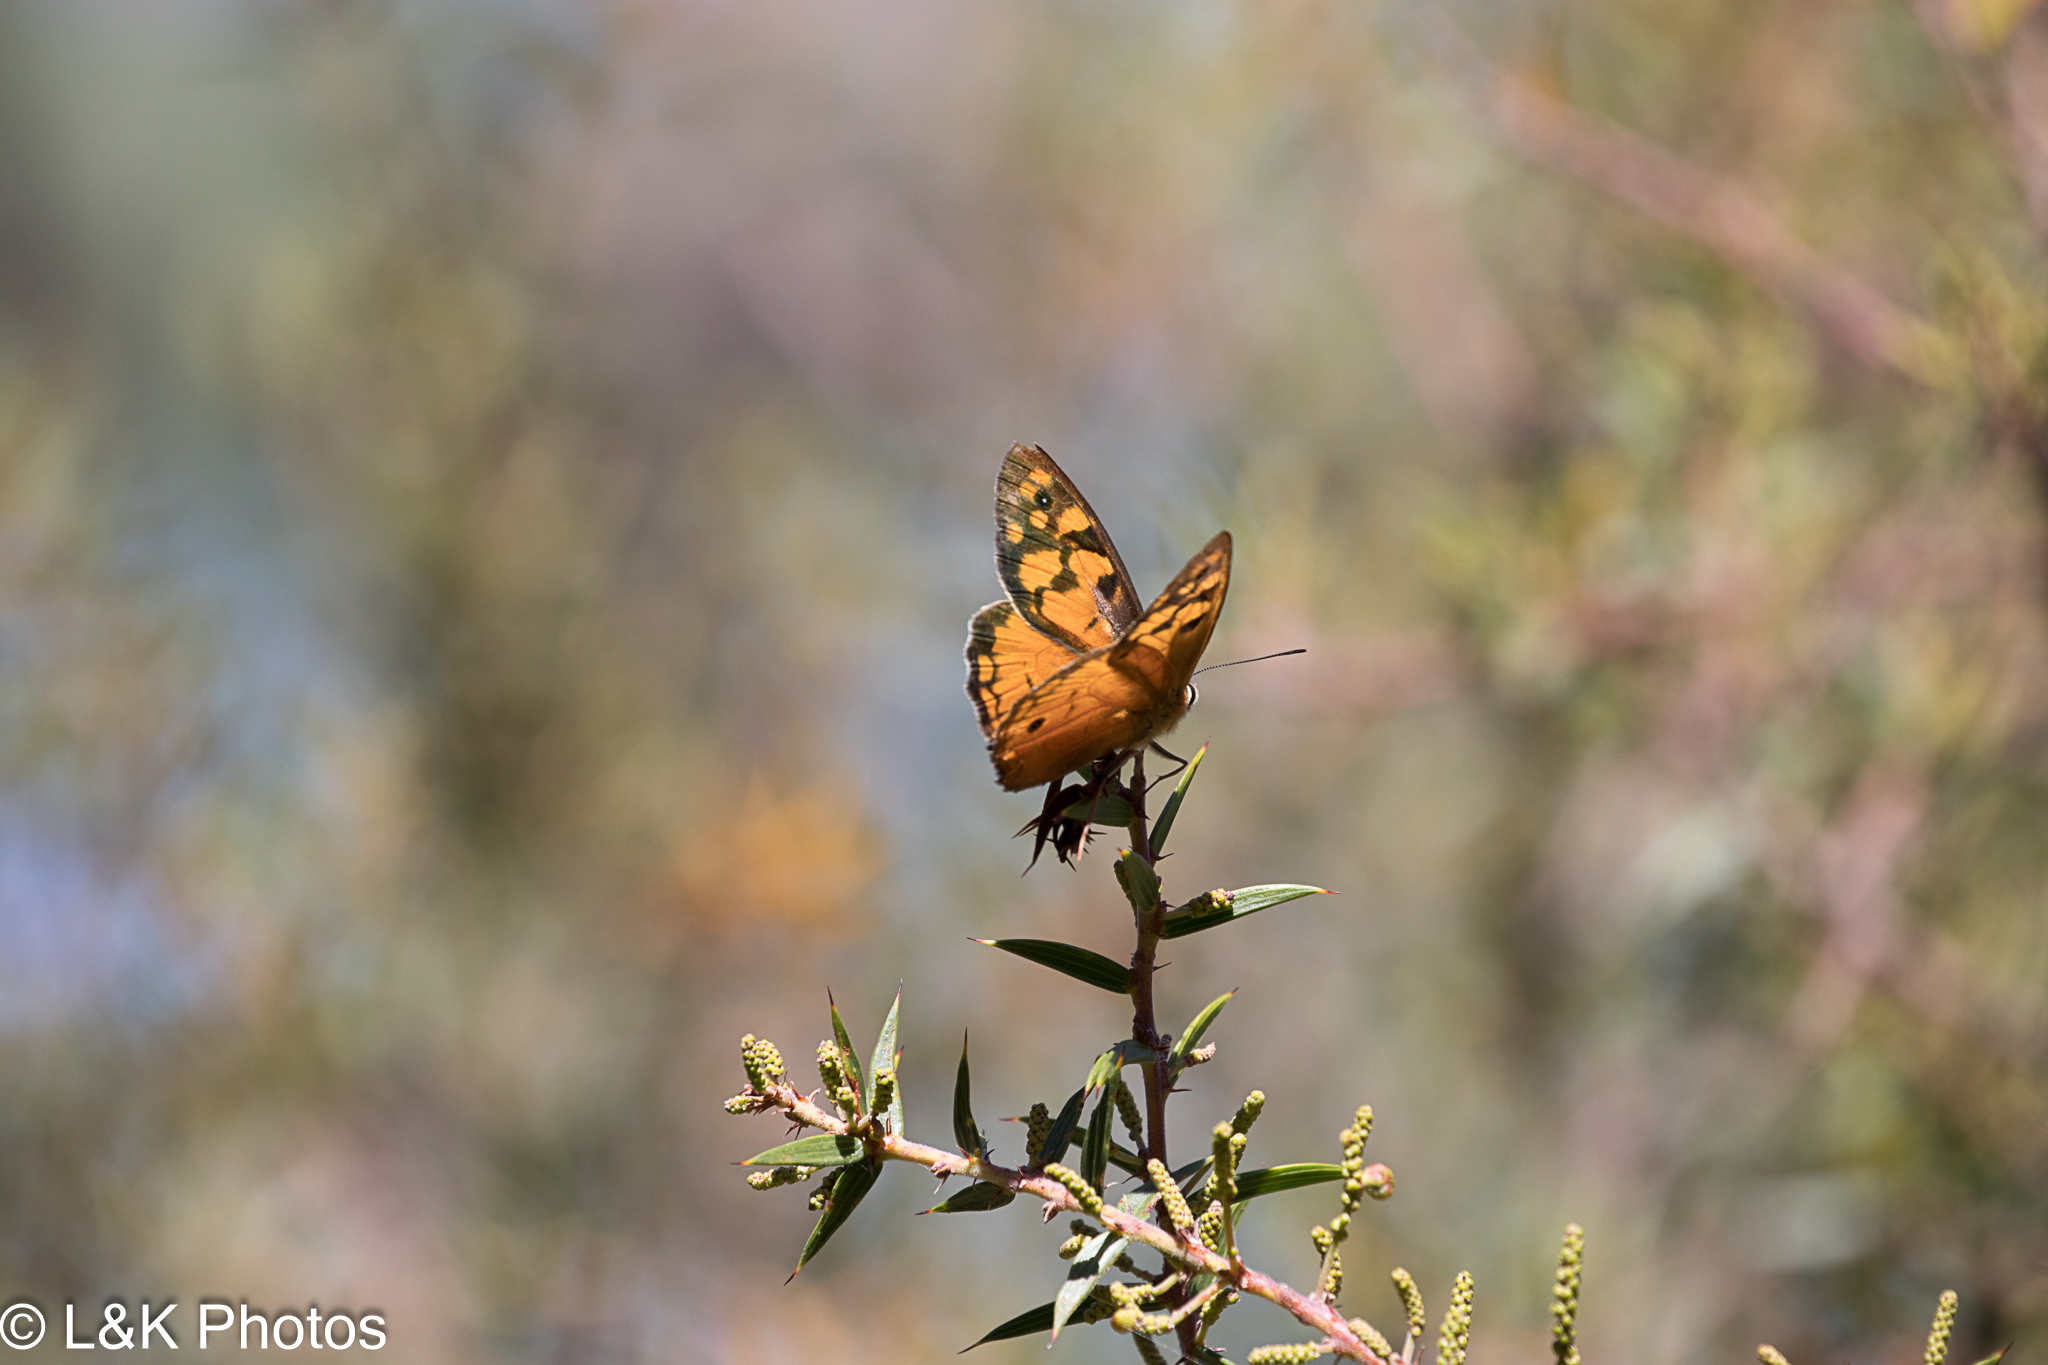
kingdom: Animalia
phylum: Arthropoda
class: Insecta
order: Lepidoptera
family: Nymphalidae
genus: Heteronympha
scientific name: Heteronympha penelope
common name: Shouldered brown
